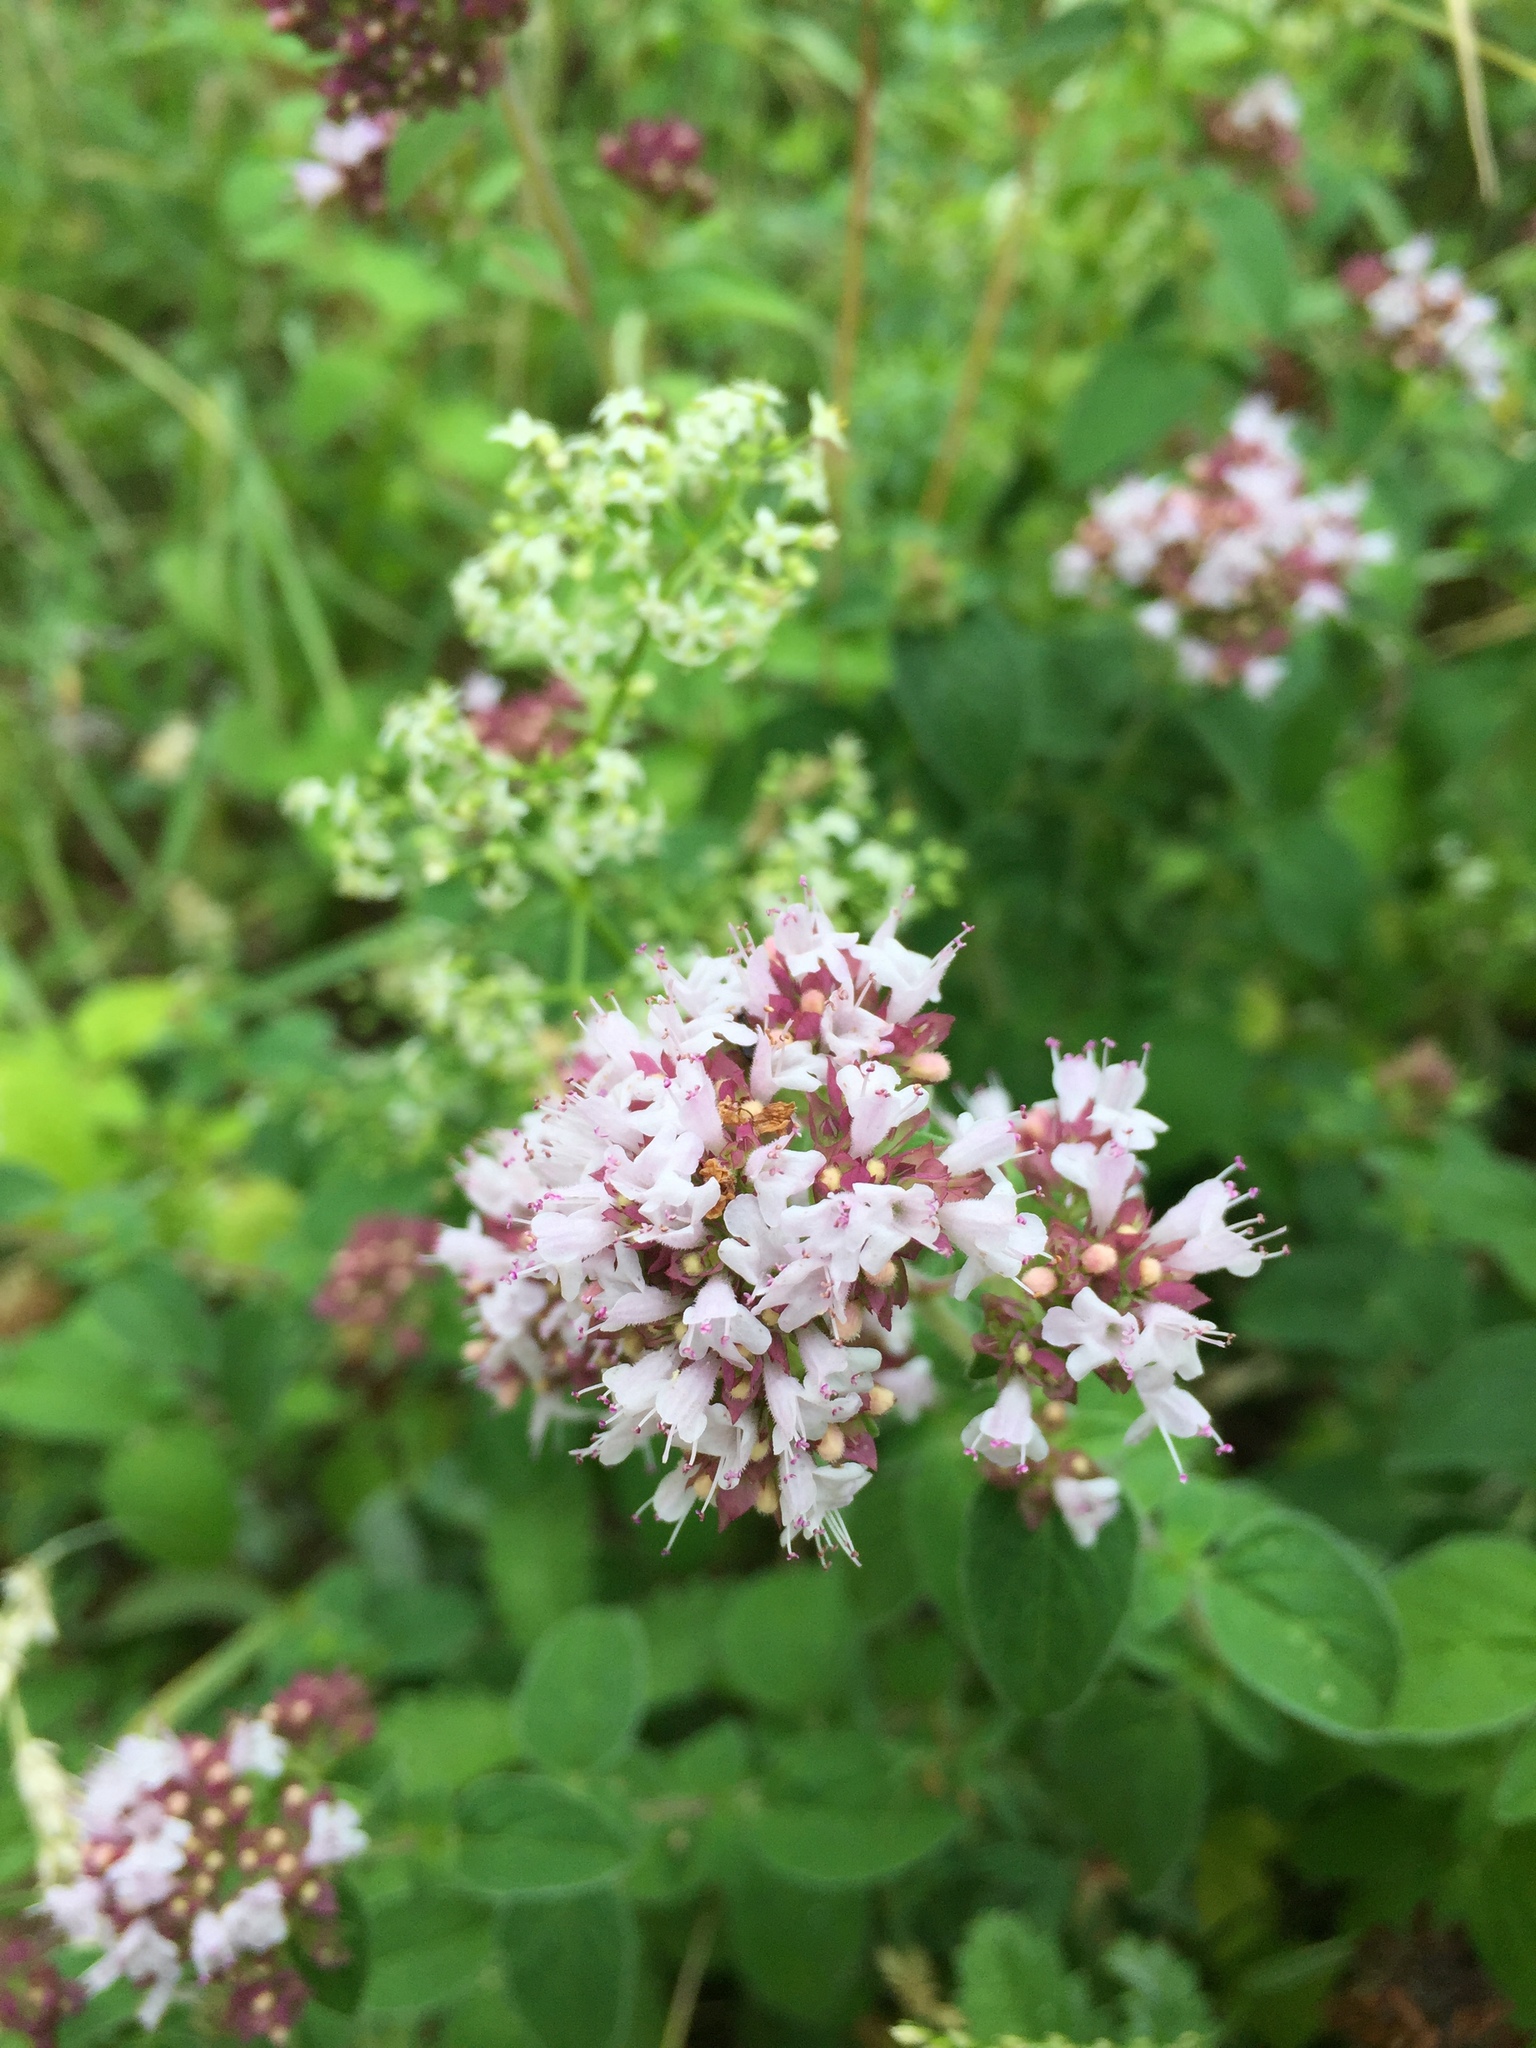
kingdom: Plantae
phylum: Tracheophyta
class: Magnoliopsida
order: Lamiales
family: Lamiaceae
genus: Origanum
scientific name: Origanum vulgare
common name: Wild marjoram
